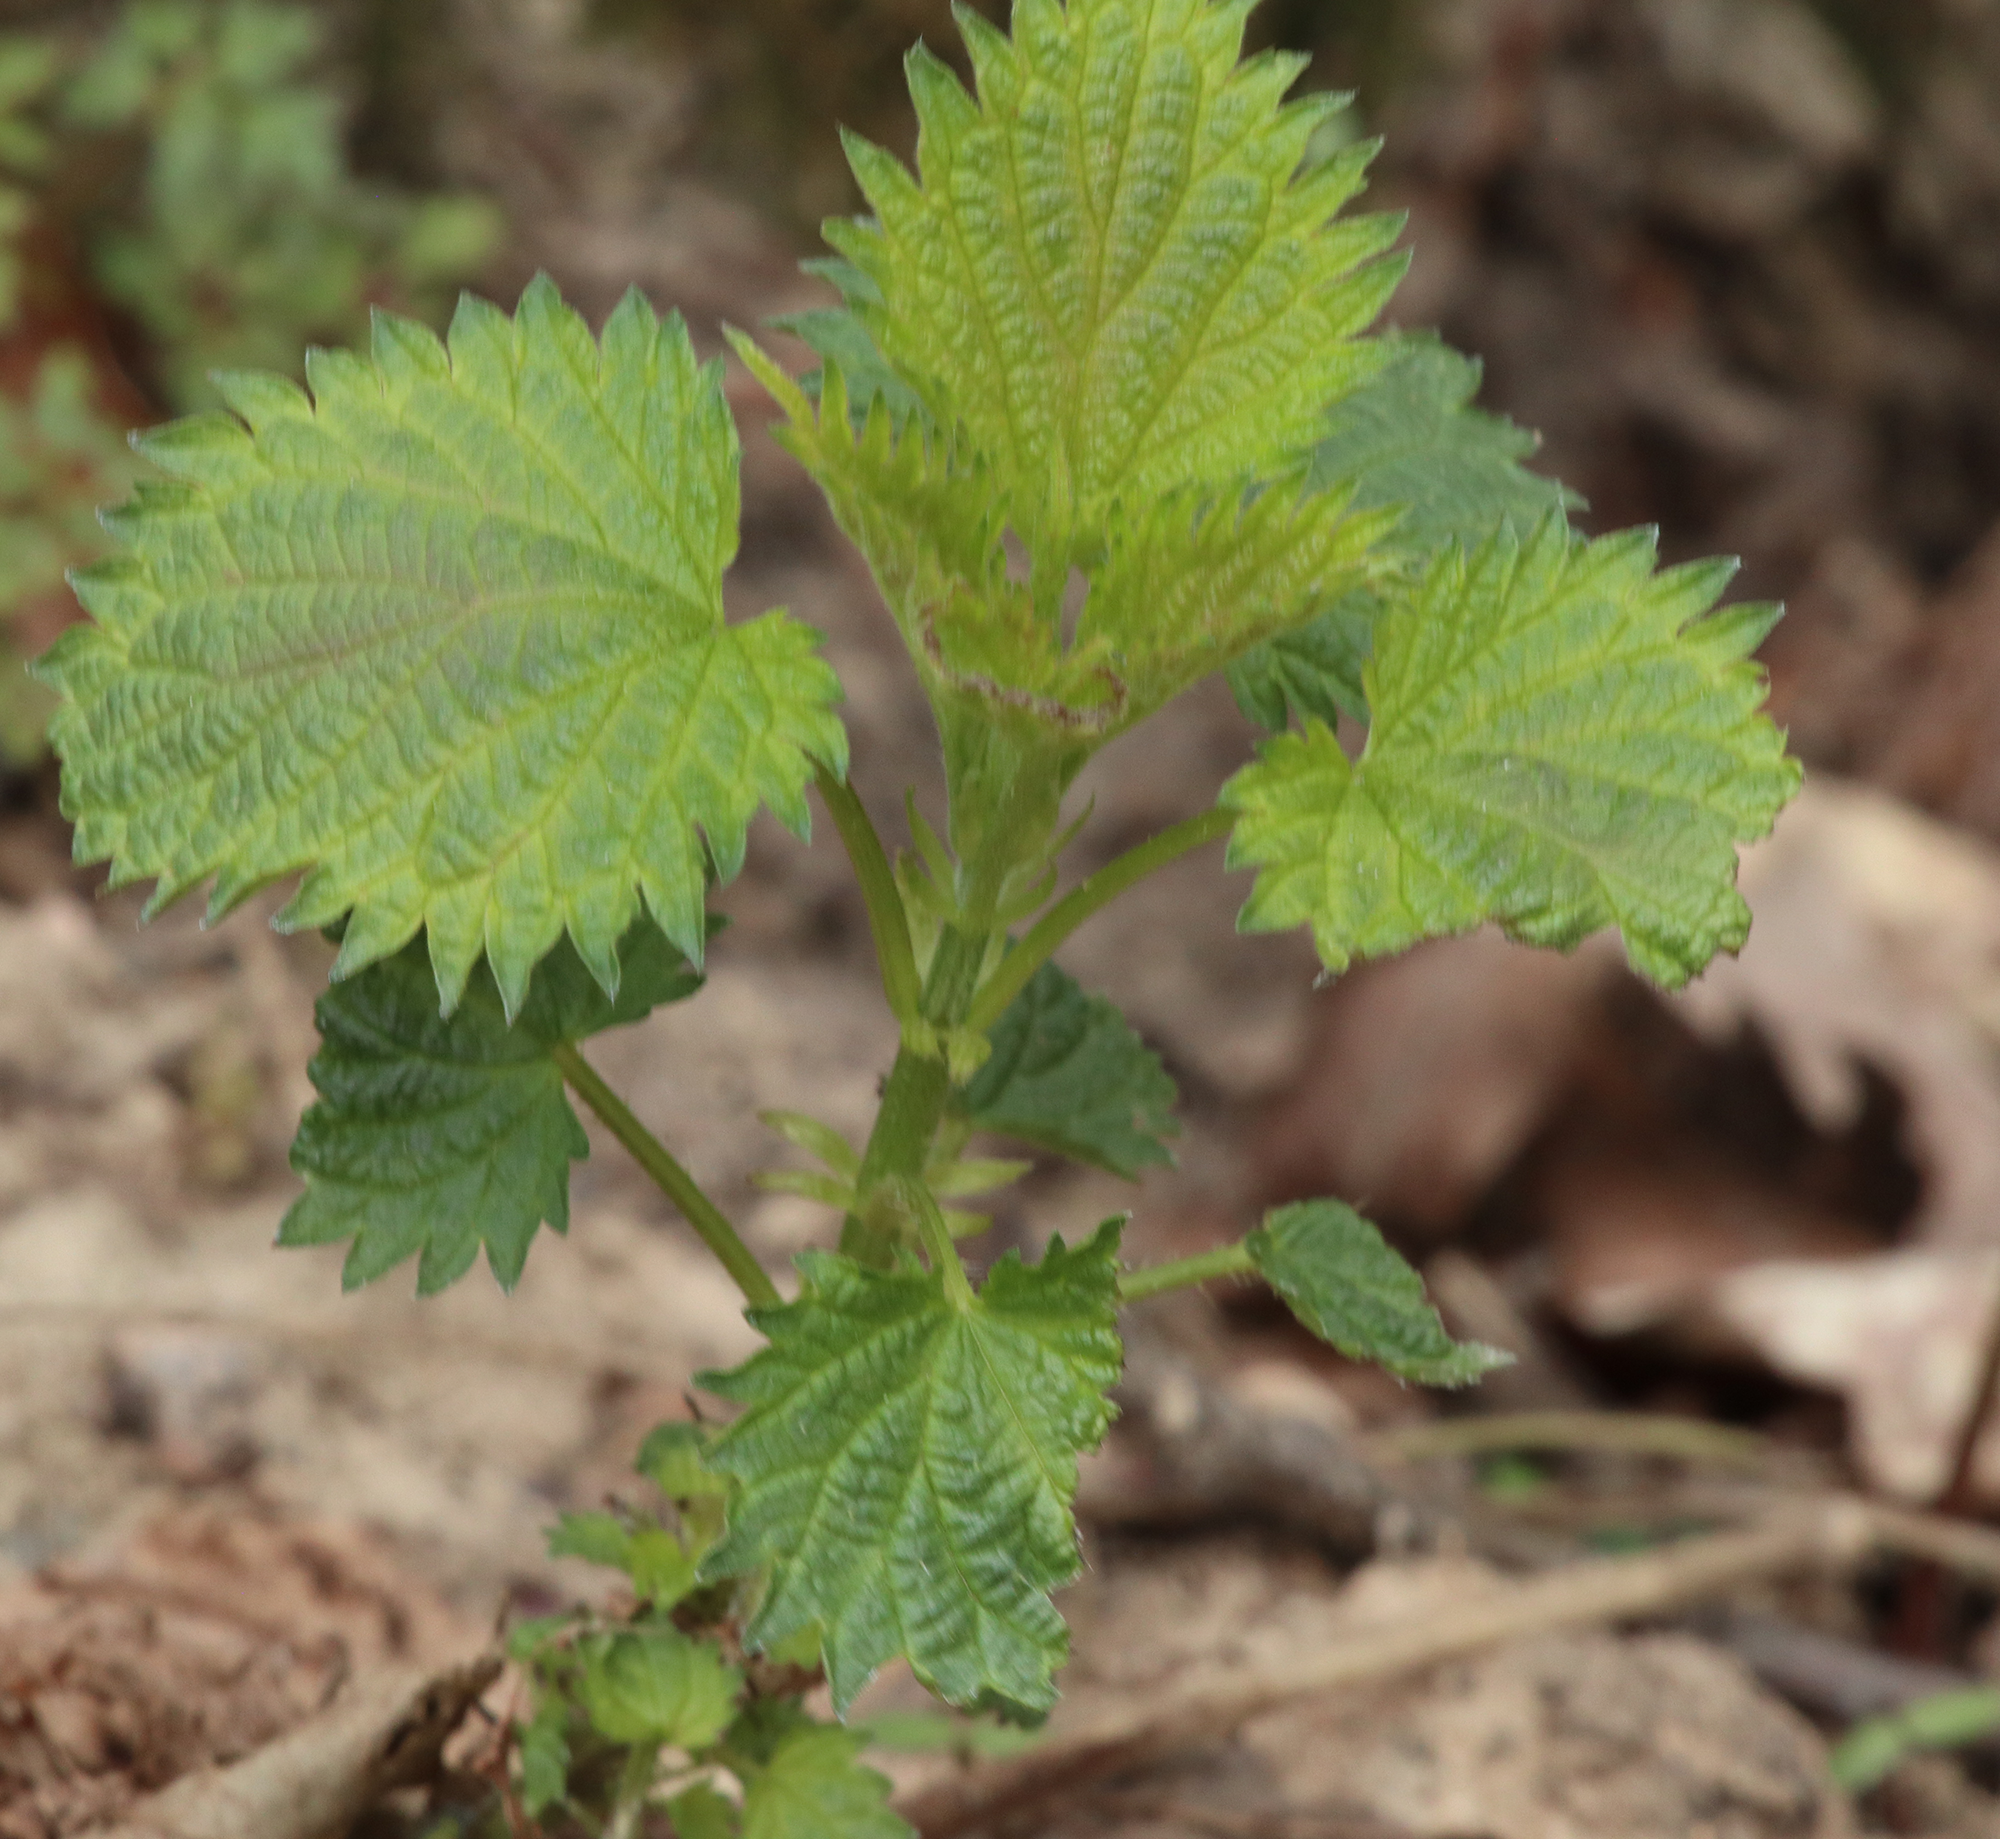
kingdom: Plantae
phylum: Tracheophyta
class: Magnoliopsida
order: Rosales
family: Urticaceae
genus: Urtica
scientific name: Urtica dioica
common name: Common nettle
